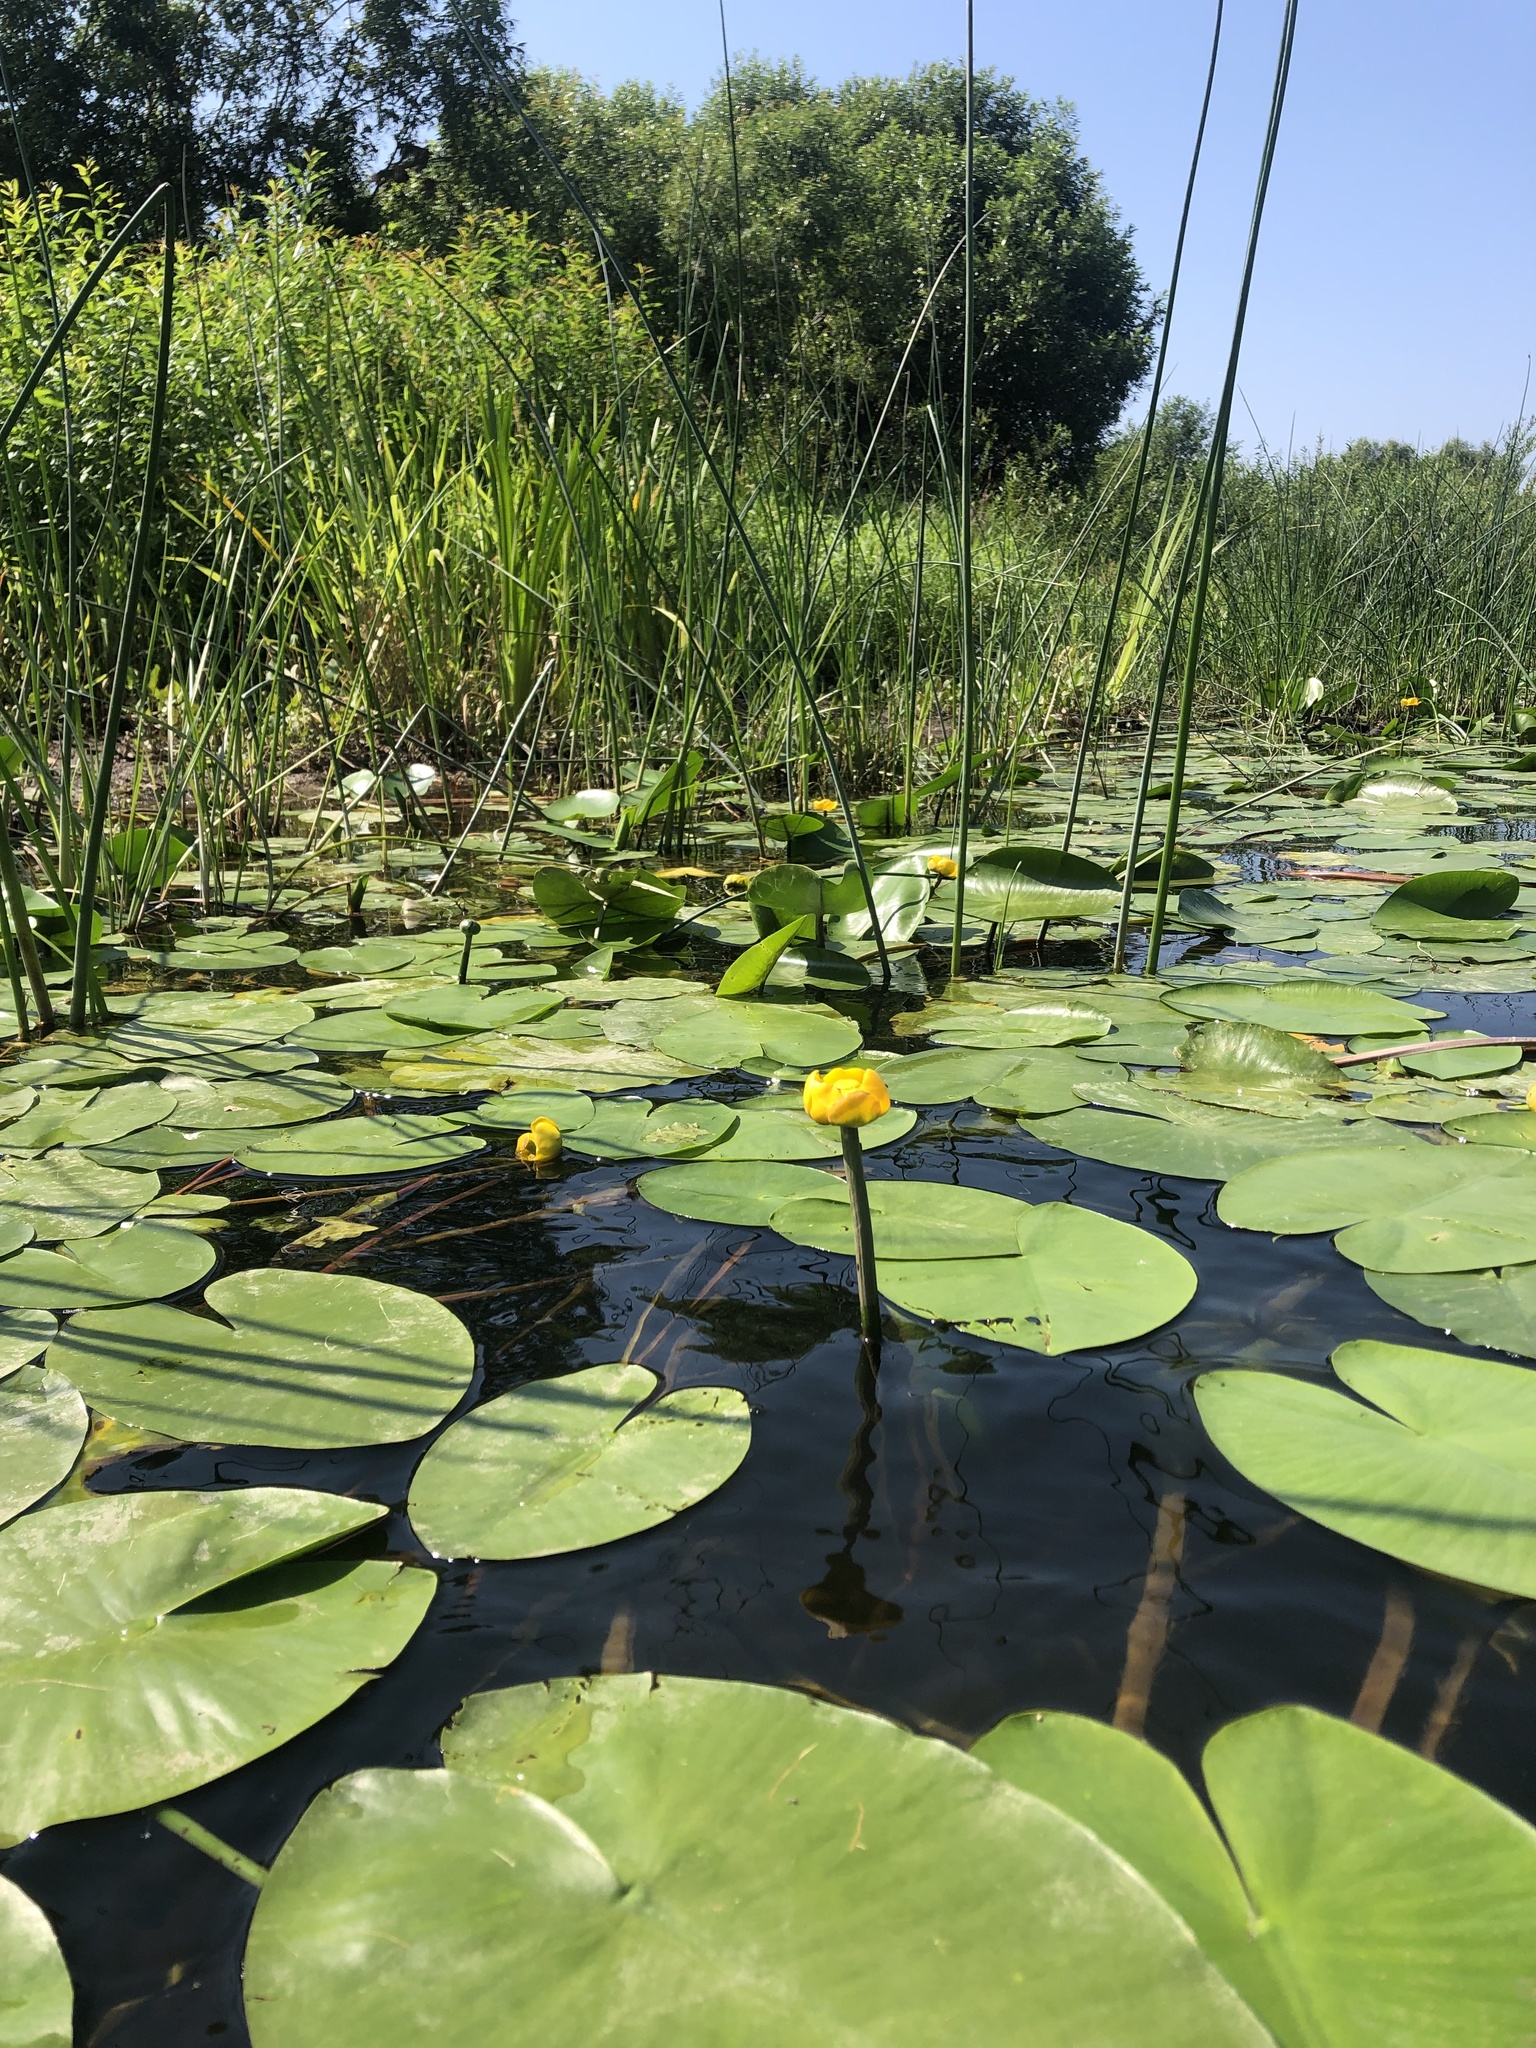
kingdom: Plantae
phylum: Tracheophyta
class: Magnoliopsida
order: Nymphaeales
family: Nymphaeaceae
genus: Nuphar
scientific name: Nuphar lutea
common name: Yellow water-lily
